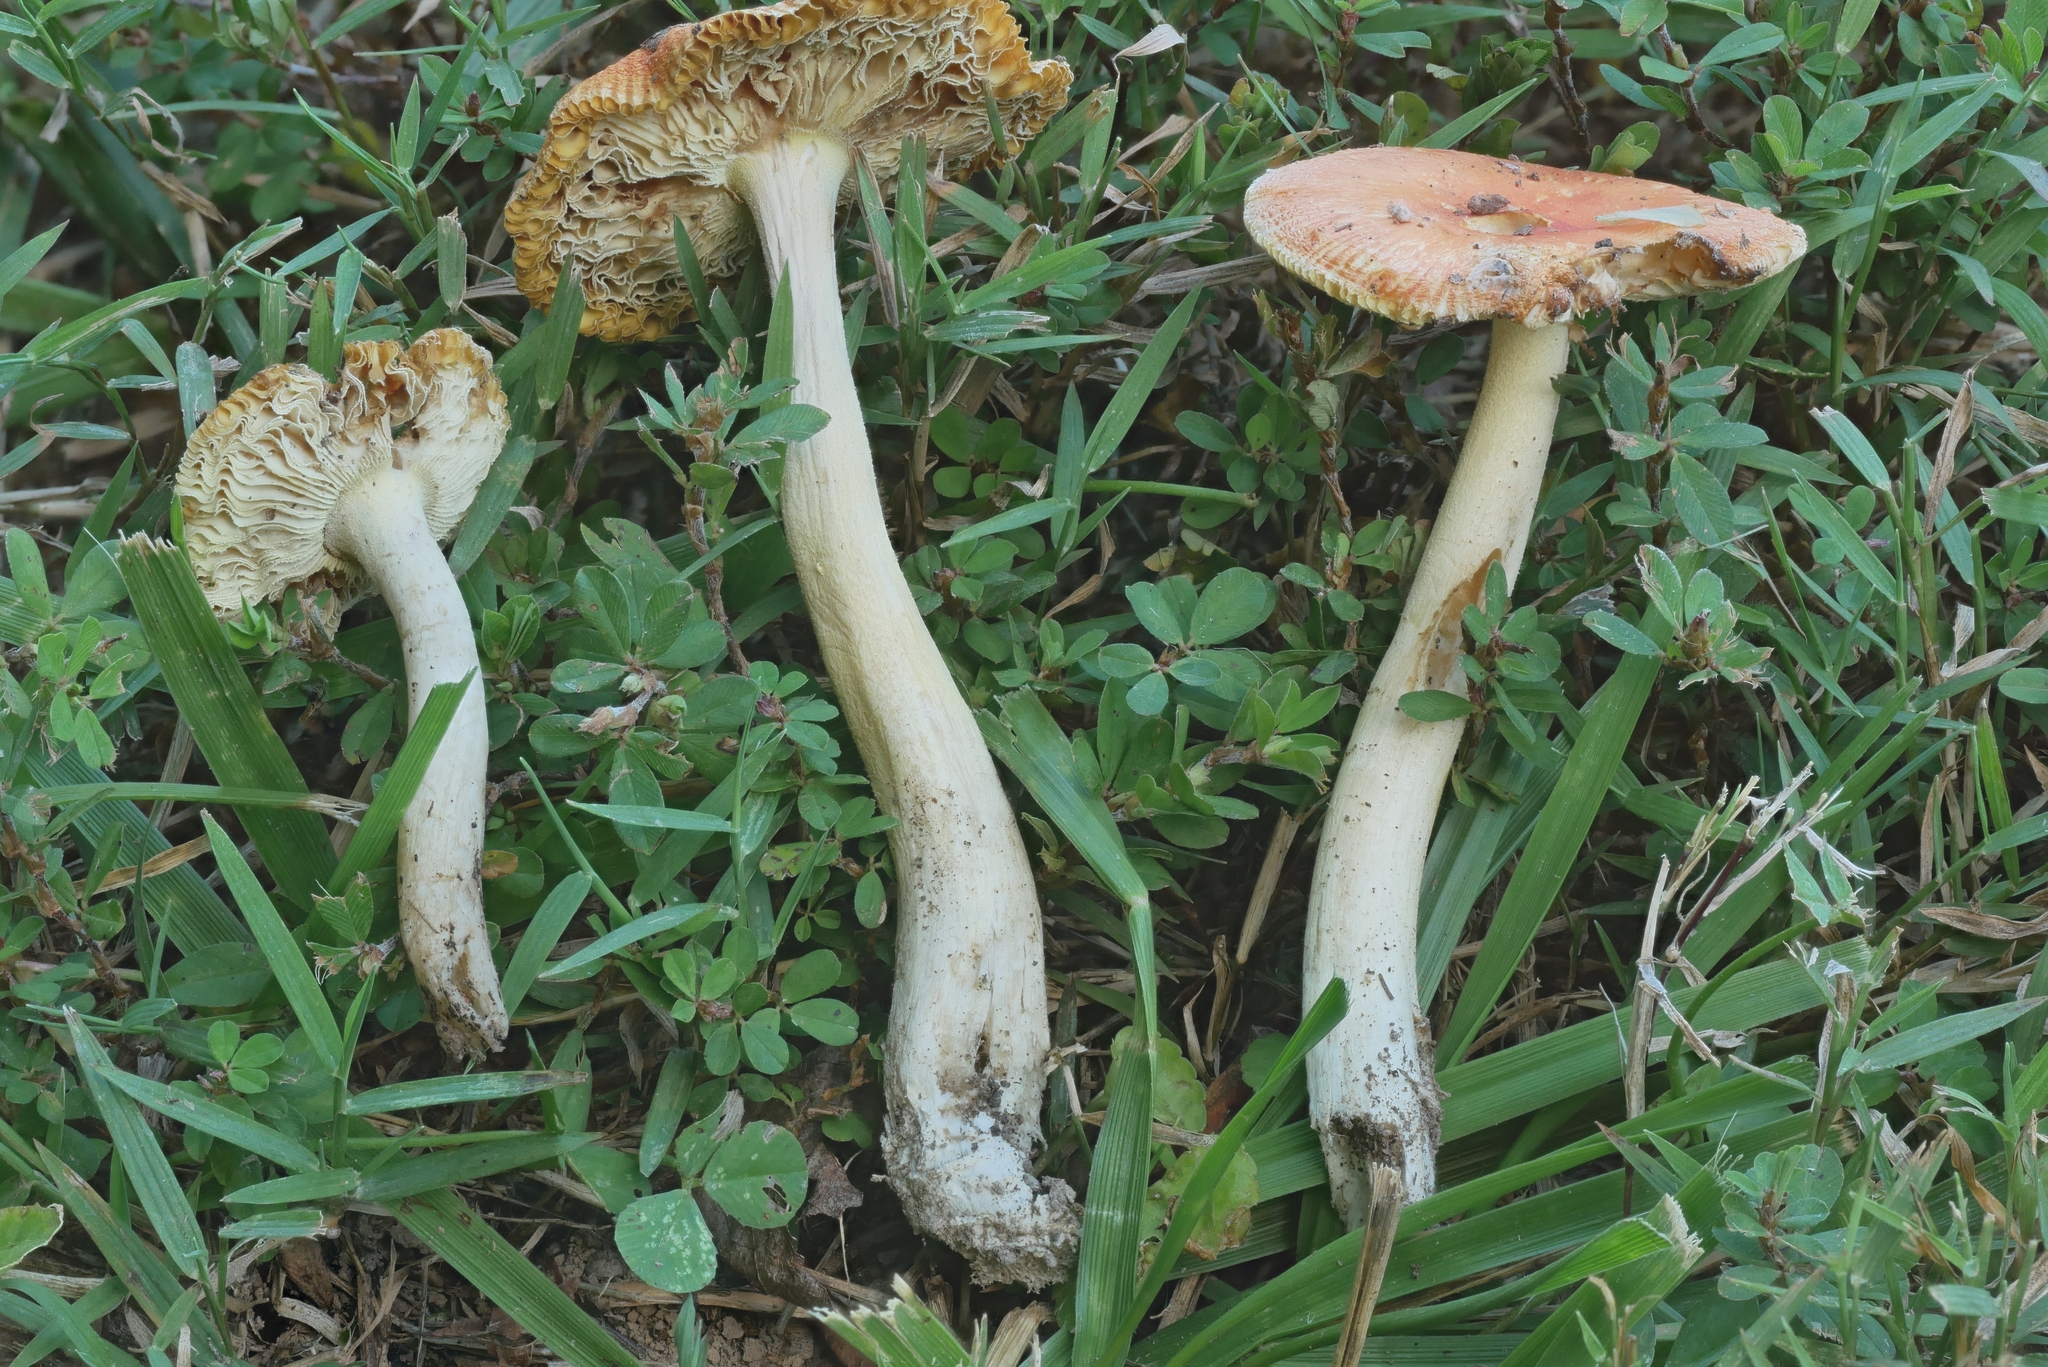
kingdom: Fungi
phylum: Basidiomycota
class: Agaricomycetes
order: Agaricales
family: Amanitaceae
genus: Amanita
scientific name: Amanita parcivolvata
